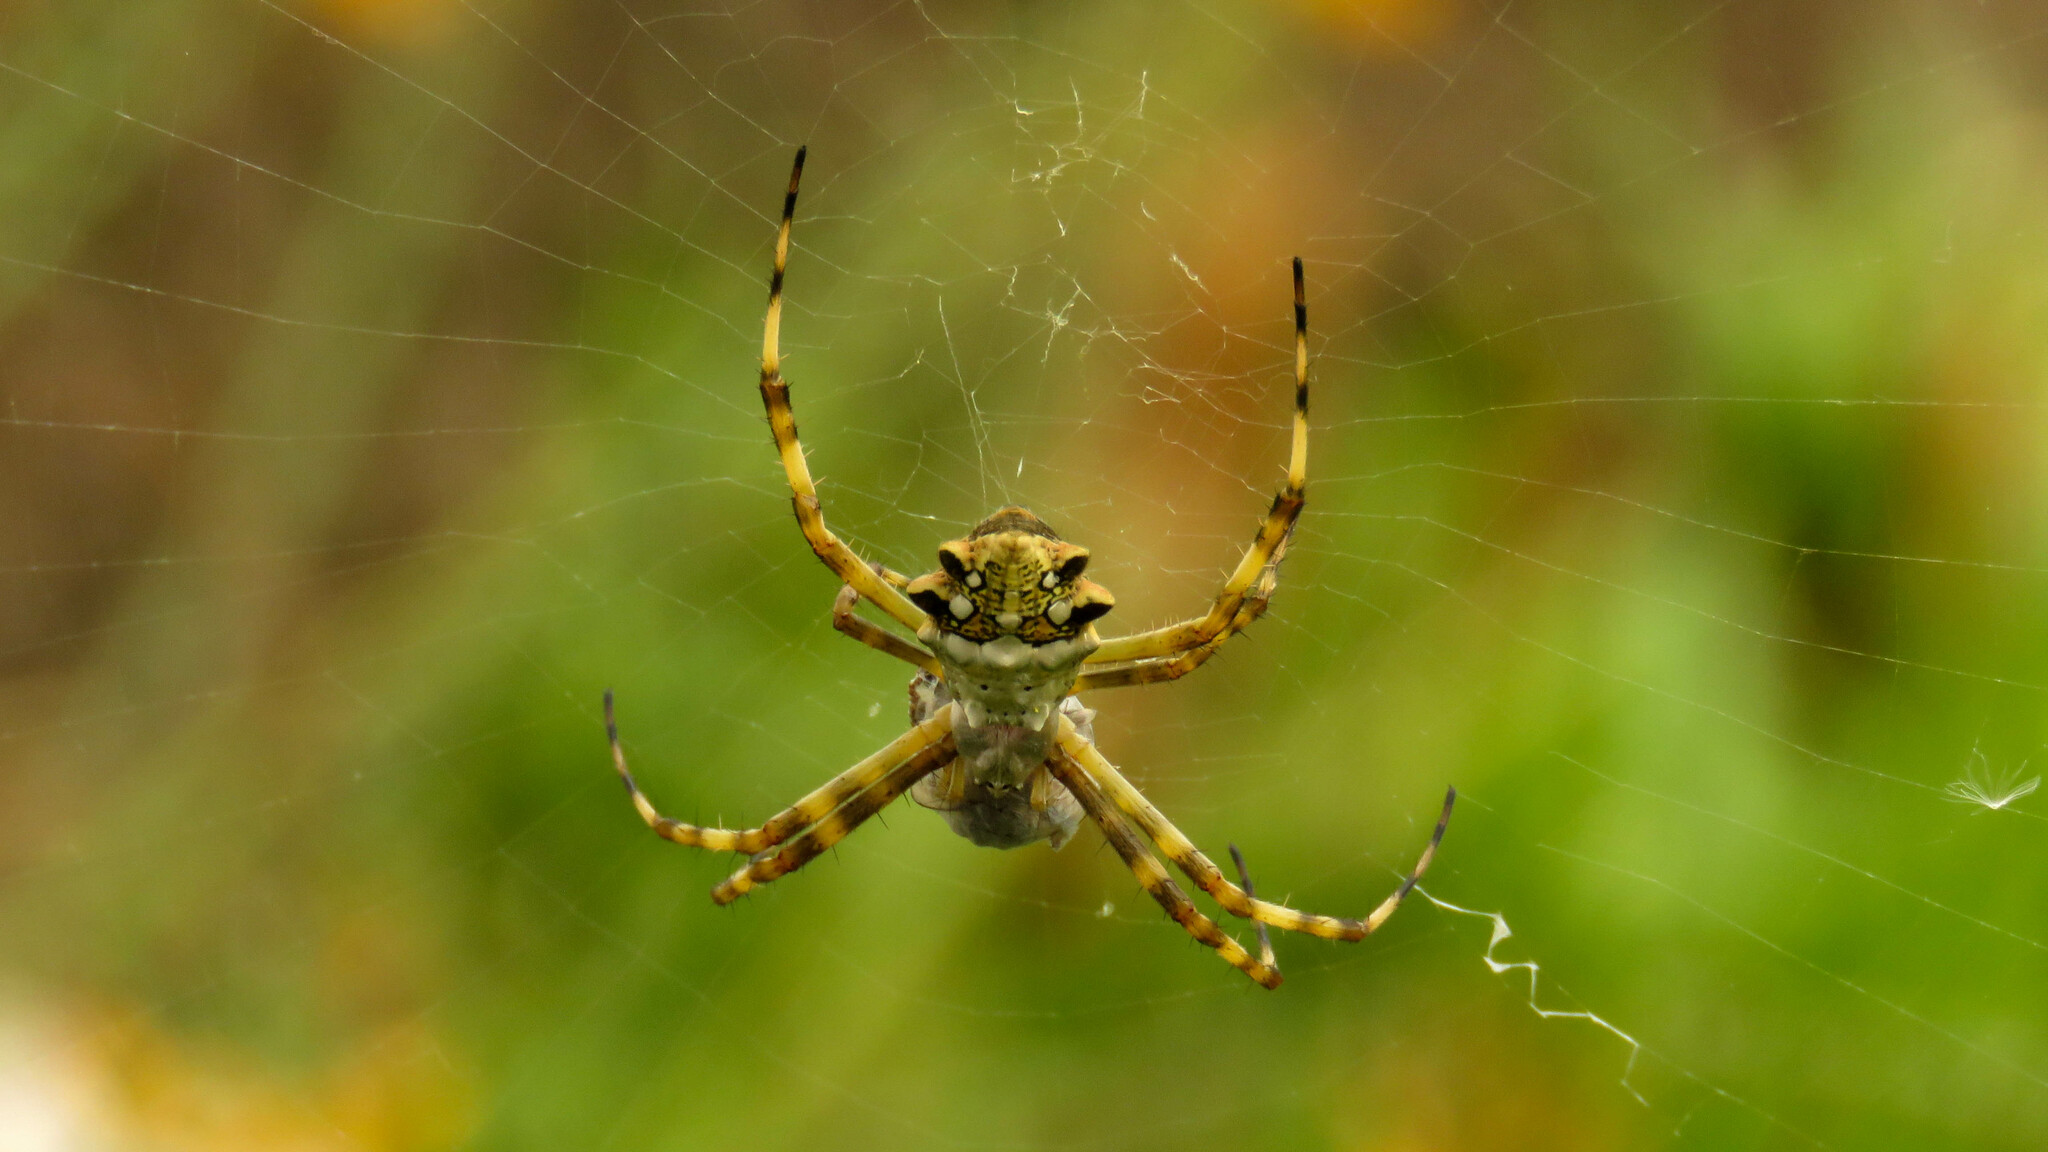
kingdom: Animalia
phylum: Arthropoda
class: Arachnida
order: Araneae
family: Araneidae
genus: Argiope
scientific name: Argiope argentata
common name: Orb weavers
